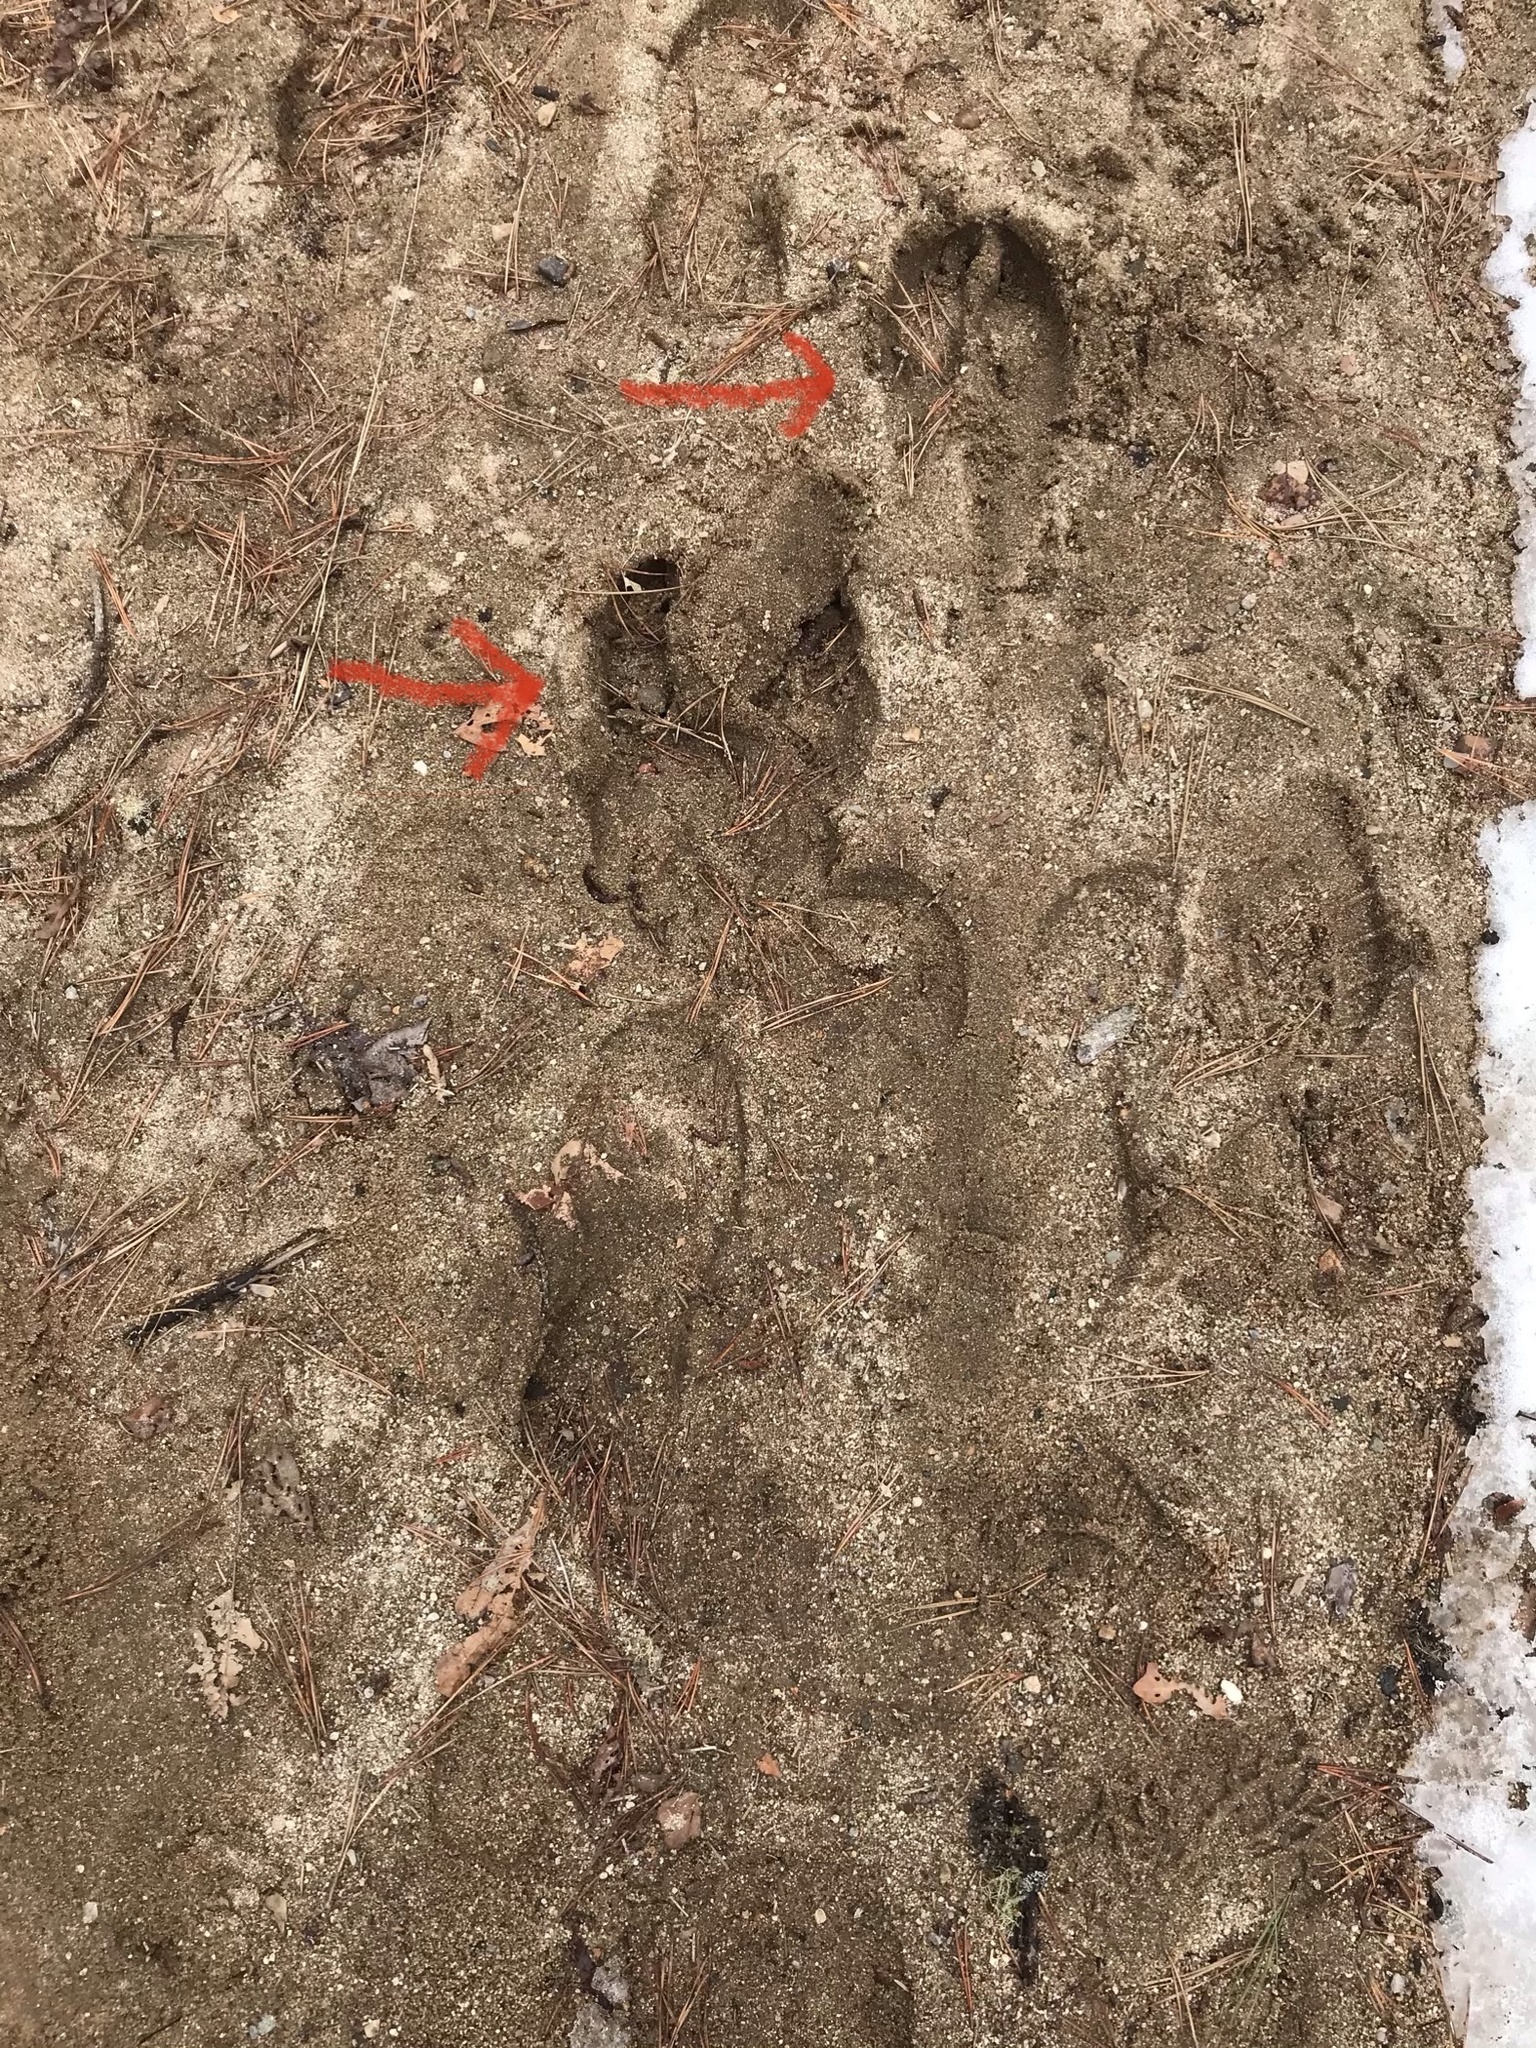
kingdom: Animalia
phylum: Chordata
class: Mammalia
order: Artiodactyla
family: Cervidae
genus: Alces
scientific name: Alces alces
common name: Moose
